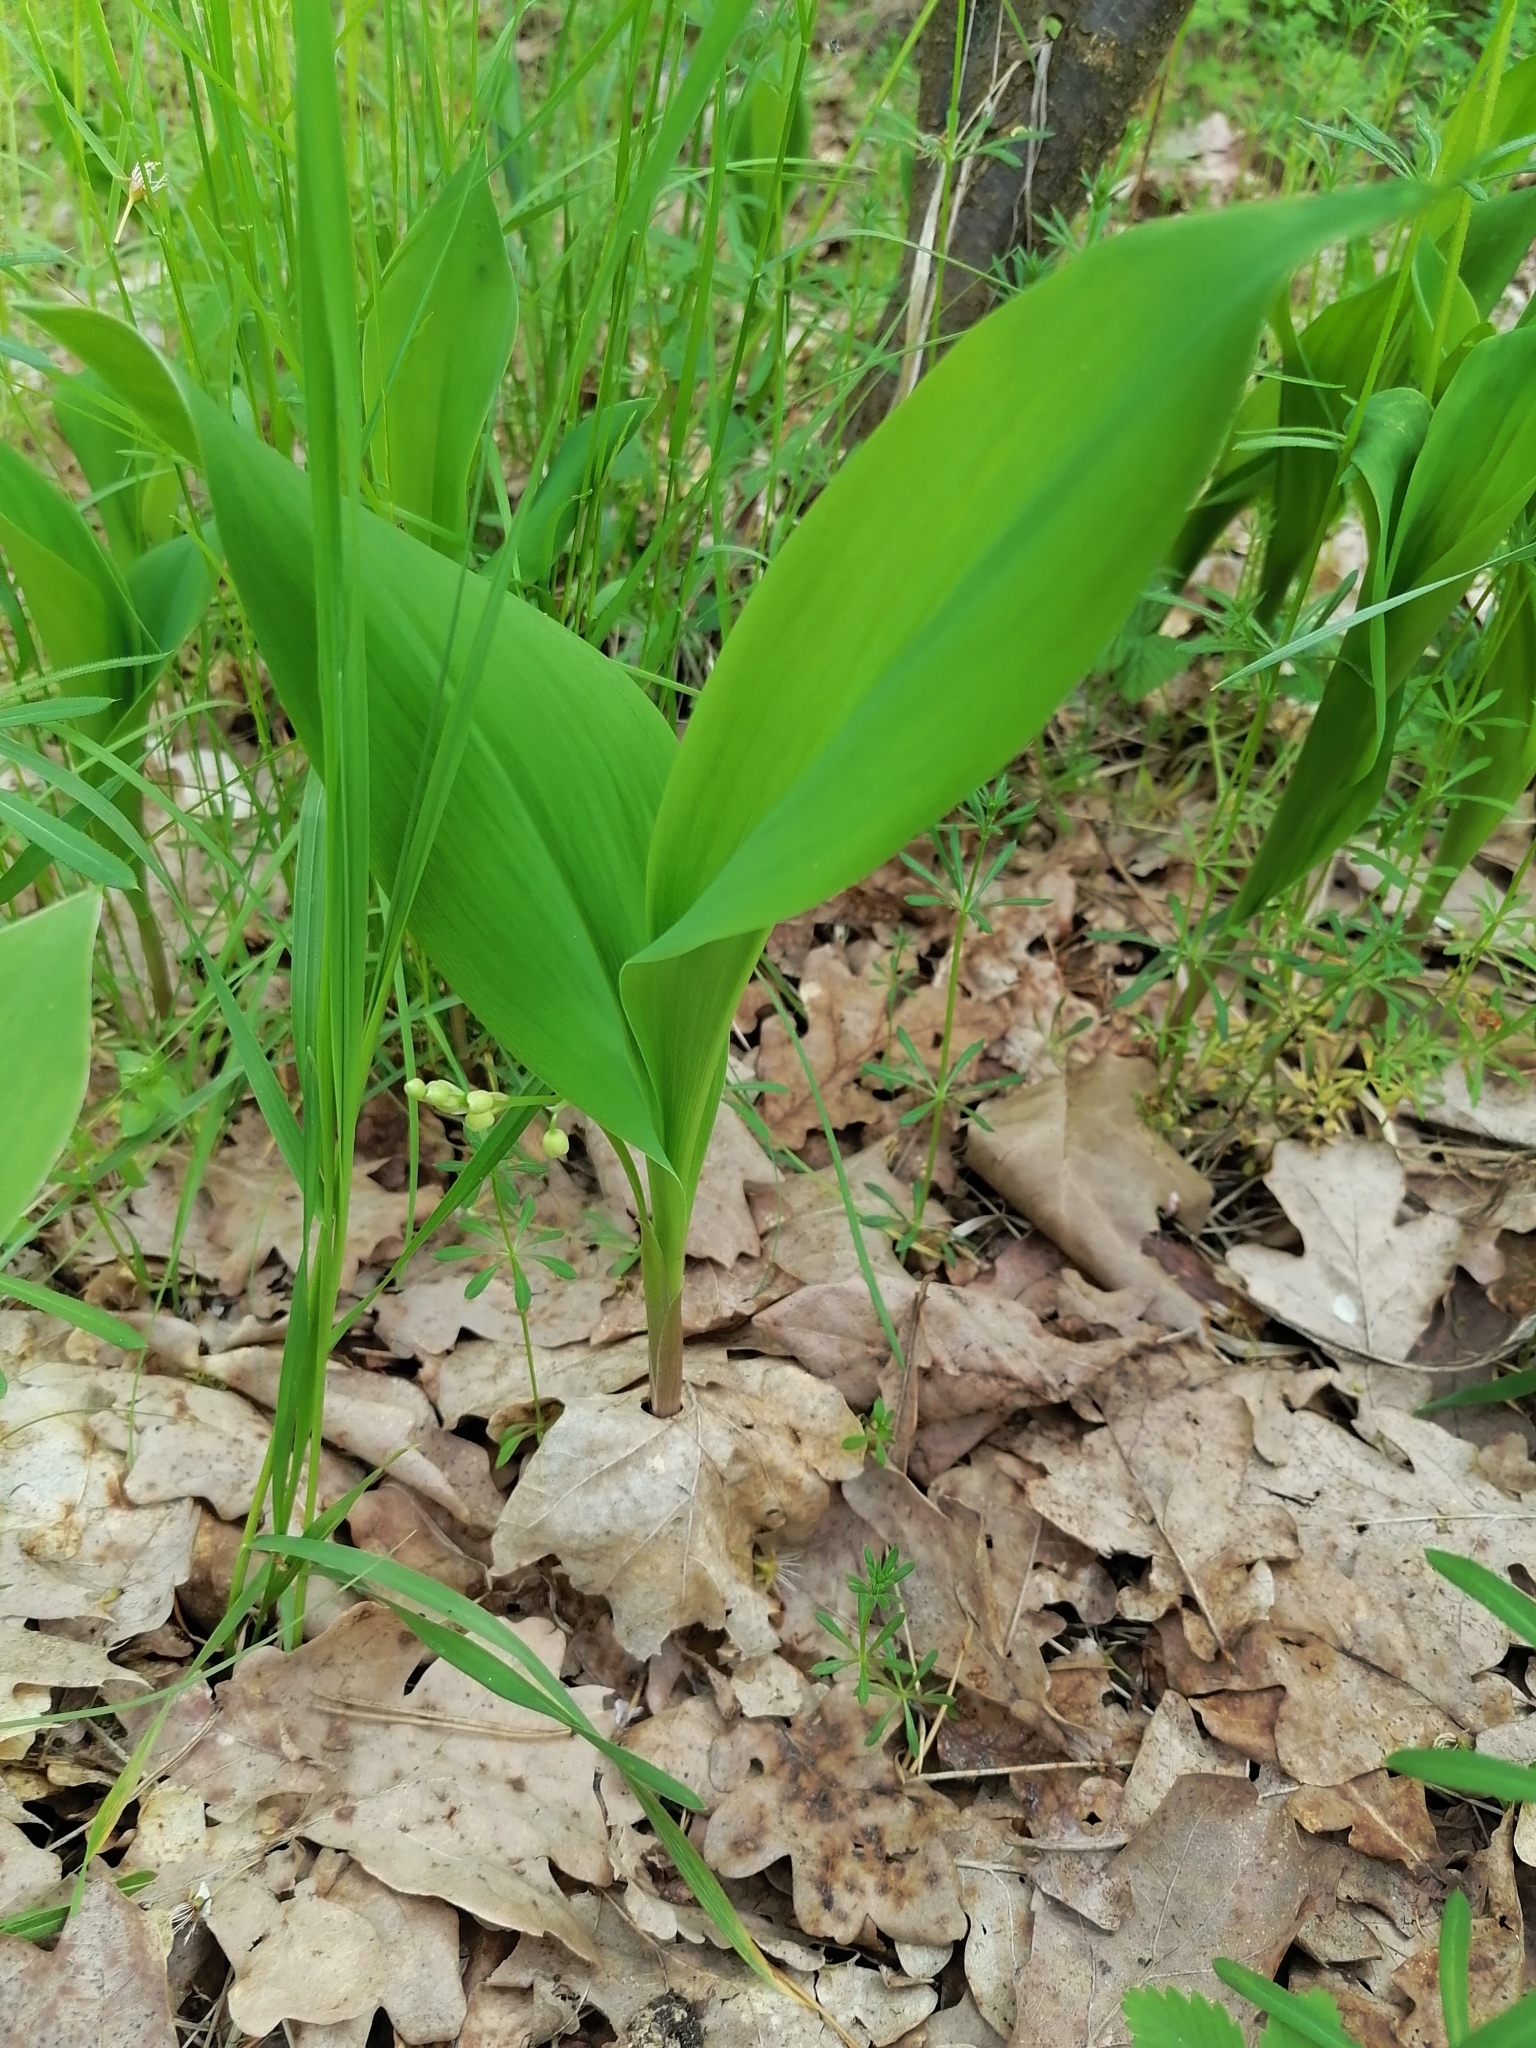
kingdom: Plantae
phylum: Tracheophyta
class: Liliopsida
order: Asparagales
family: Asparagaceae
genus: Convallaria
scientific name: Convallaria majalis
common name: Lily-of-the-valley
